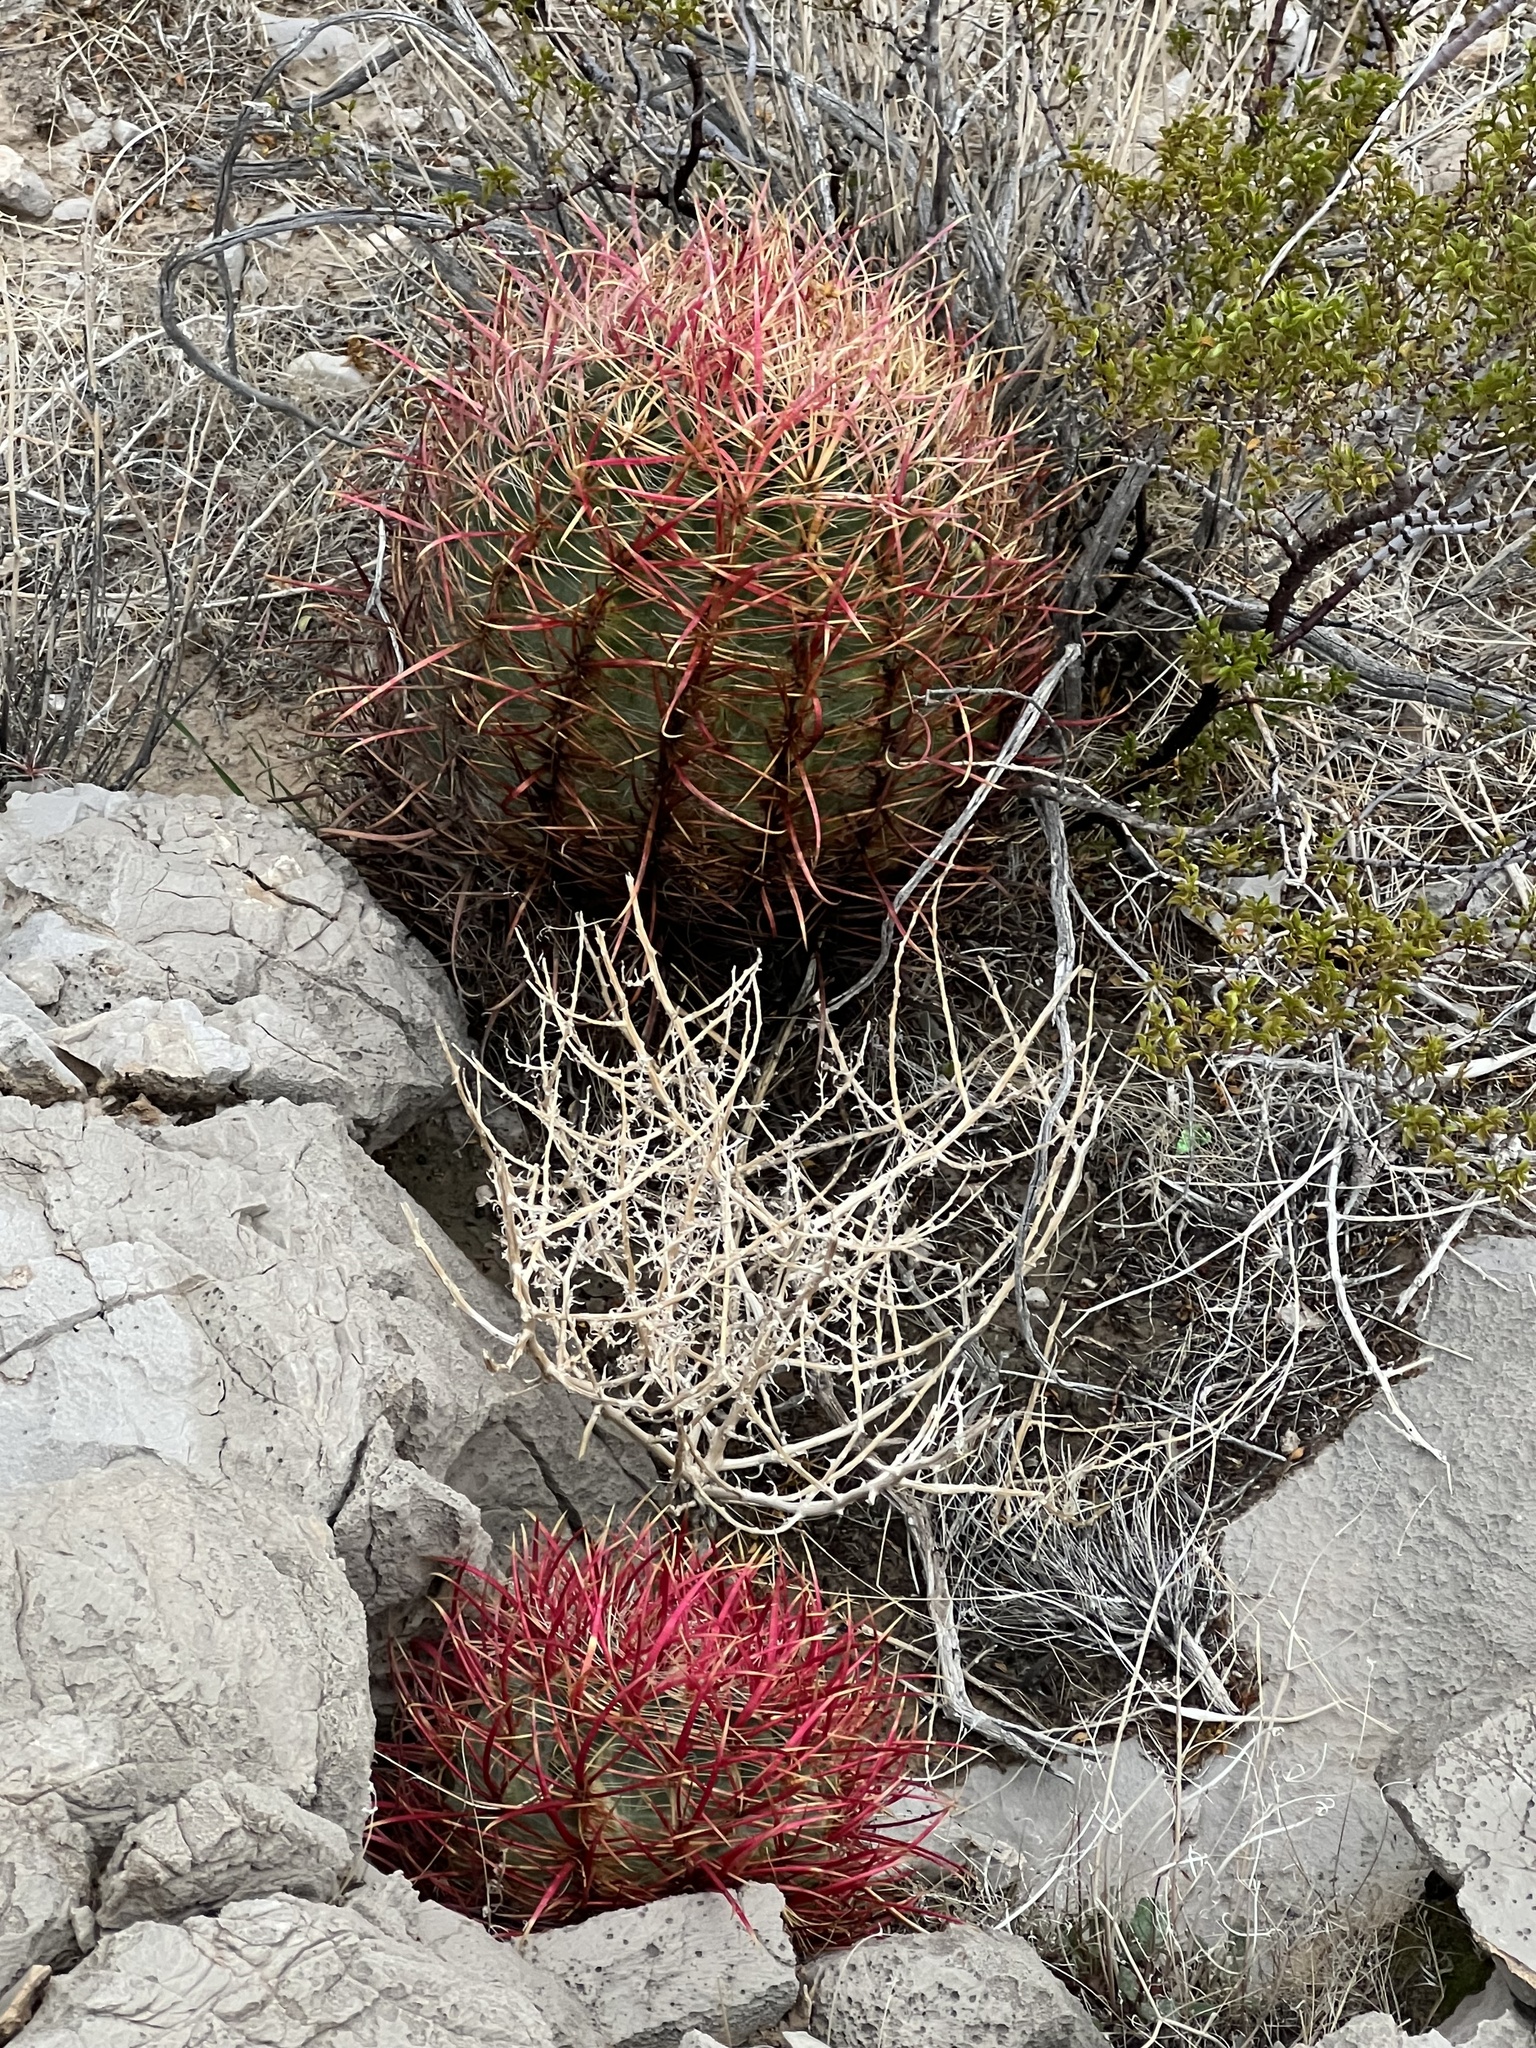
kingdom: Plantae
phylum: Tracheophyta
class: Magnoliopsida
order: Caryophyllales
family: Cactaceae
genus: Ferocactus
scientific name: Ferocactus cylindraceus
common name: California barrel cactus
